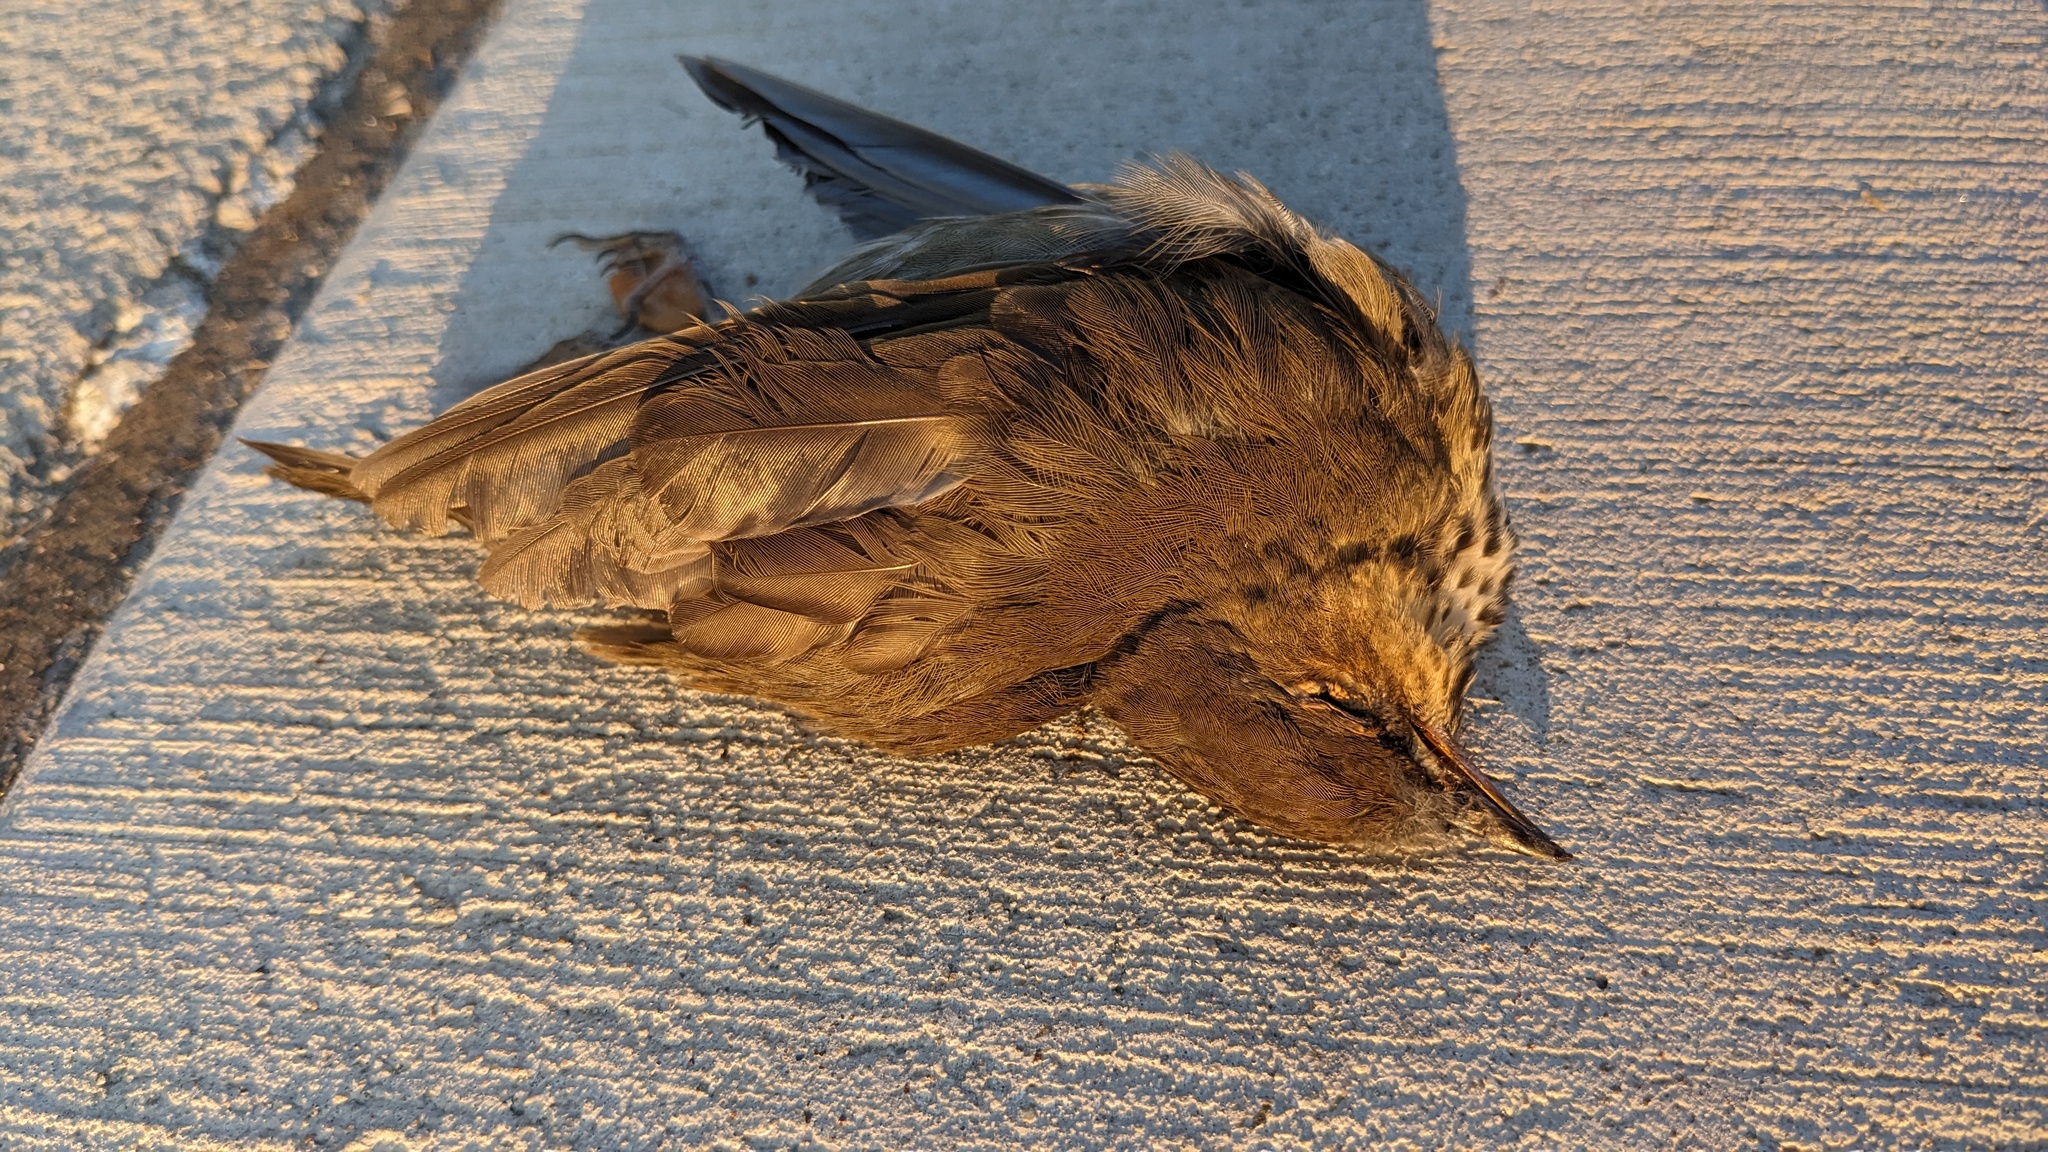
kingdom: Animalia
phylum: Chordata
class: Aves
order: Passeriformes
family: Turdidae
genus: Catharus
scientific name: Catharus ustulatus
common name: Swainson's thrush
